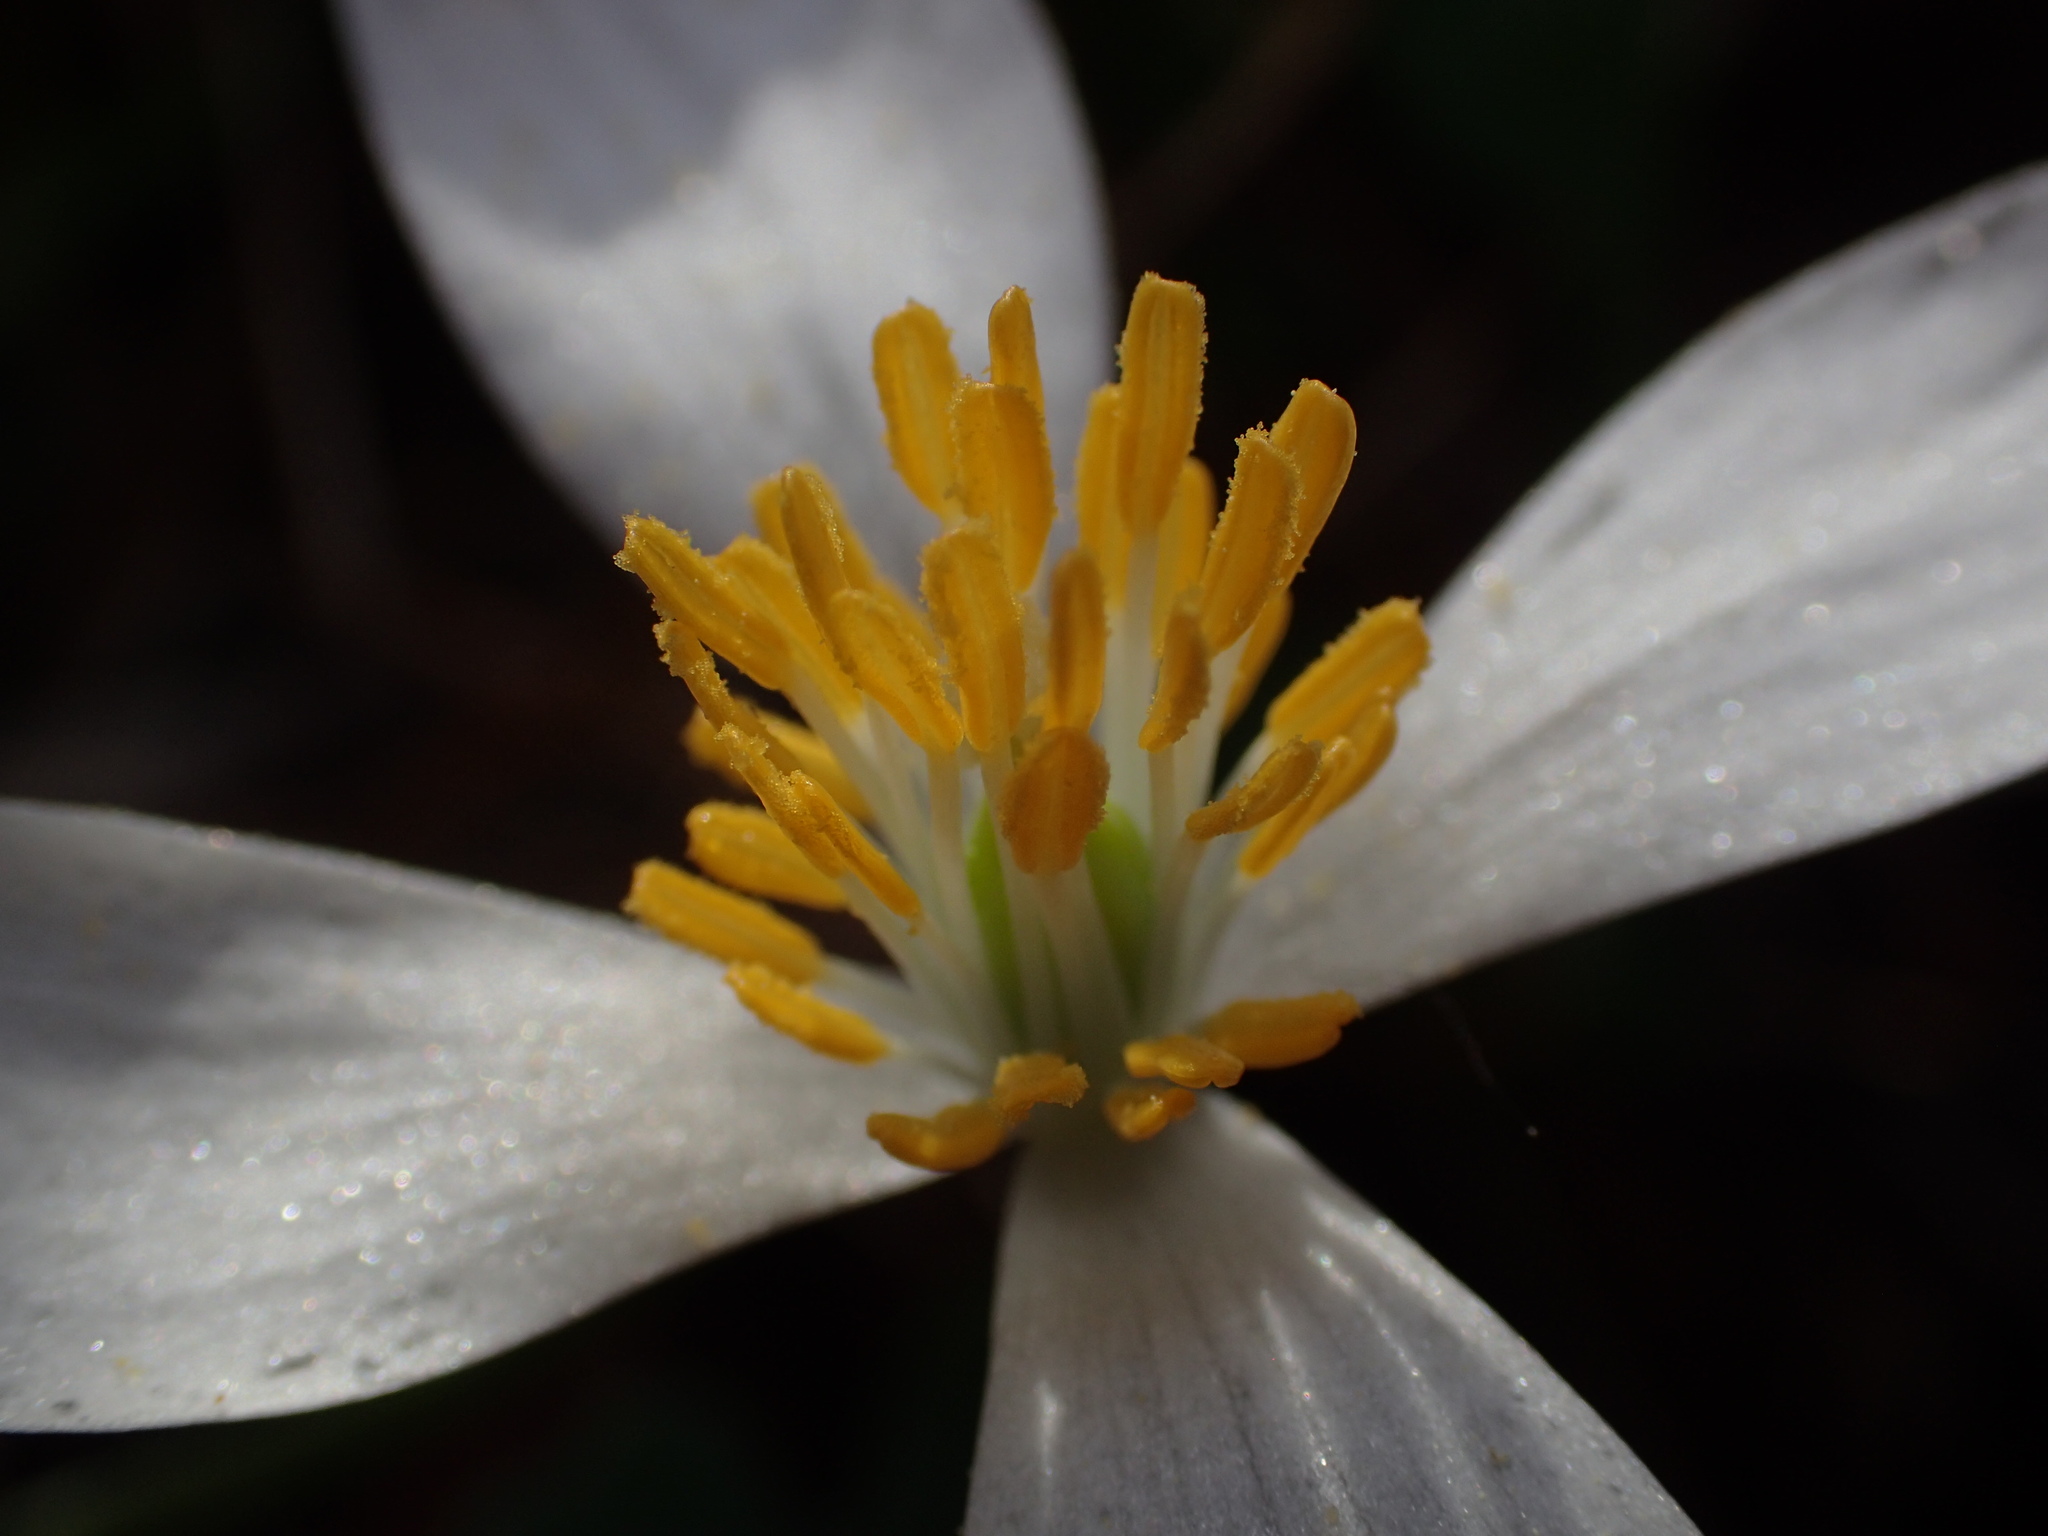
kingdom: Plantae
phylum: Tracheophyta
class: Magnoliopsida
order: Ranunculales
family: Papaveraceae
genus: Sanguinaria
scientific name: Sanguinaria canadensis
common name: Bloodroot
